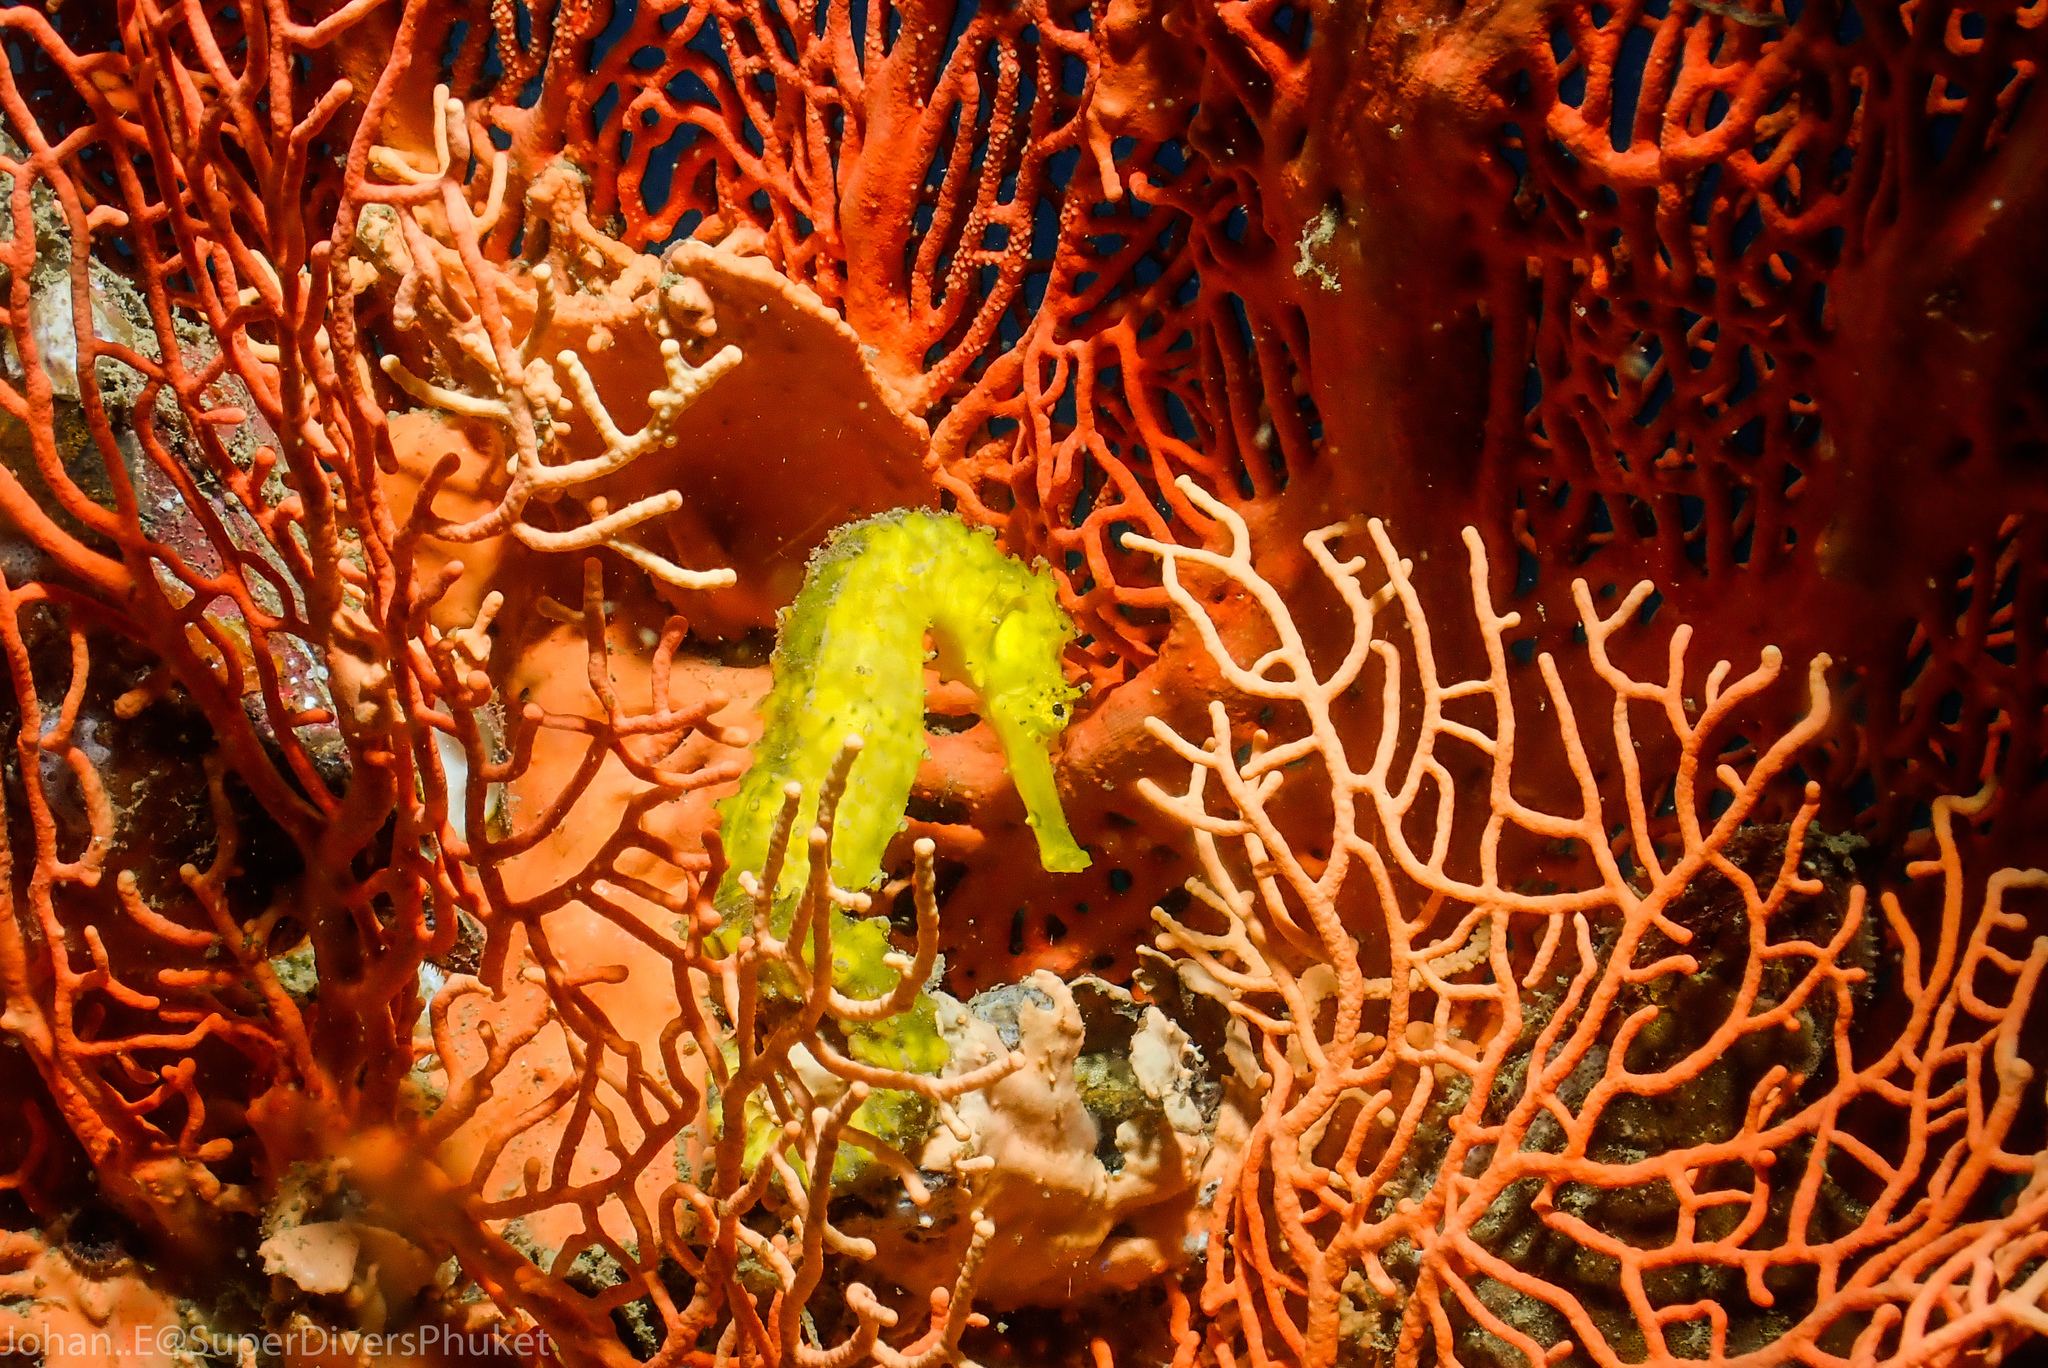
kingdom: Animalia
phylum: Chordata
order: Syngnathiformes
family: Syngnathidae
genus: Hippocampus
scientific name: Hippocampus comes
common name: Tiger tail seahorse
